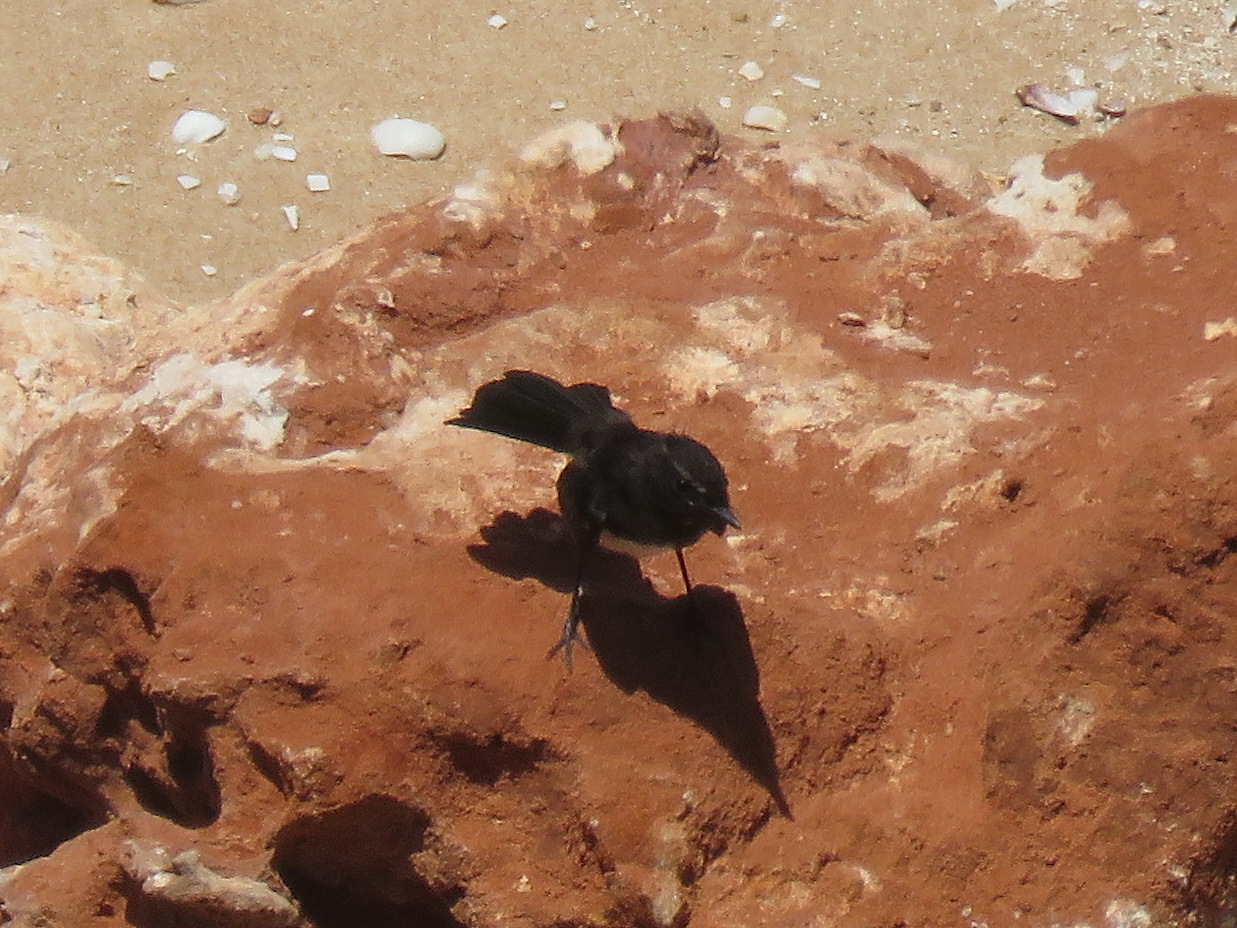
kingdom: Animalia
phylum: Chordata
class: Aves
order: Passeriformes
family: Rhipiduridae
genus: Rhipidura
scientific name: Rhipidura leucophrys
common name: Willie wagtail
